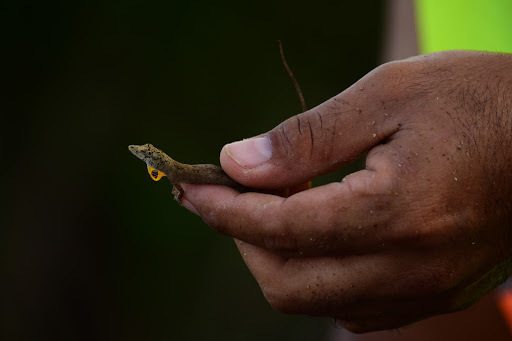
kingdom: Animalia
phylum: Chordata
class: Squamata
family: Dactyloidae
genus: Anolis
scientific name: Anolis ustus
